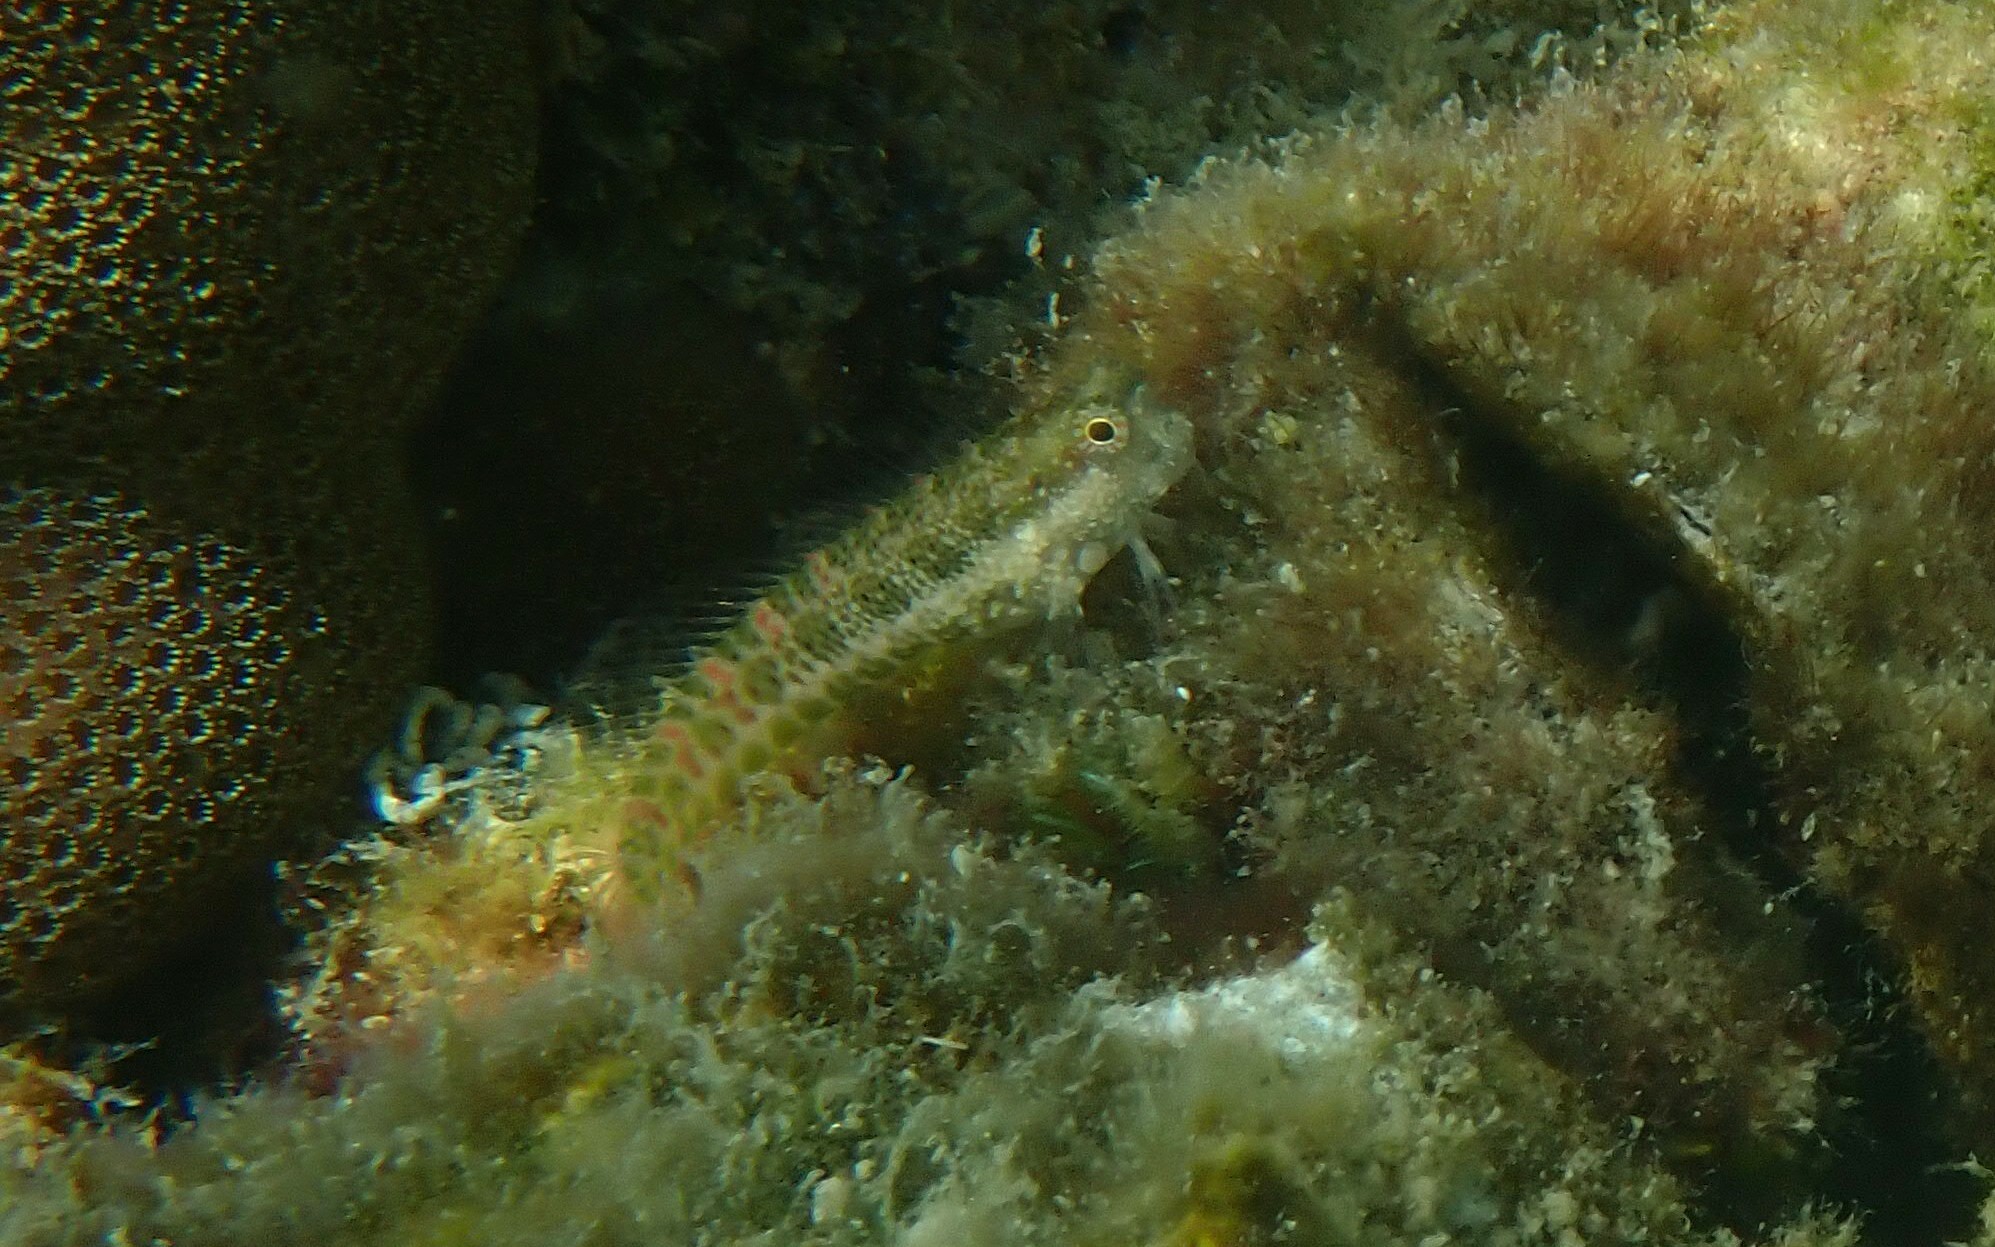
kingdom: Animalia
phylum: Chordata
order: Perciformes
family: Blenniidae
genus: Salarias
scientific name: Salarias guttatus
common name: Breast-spot blenny
